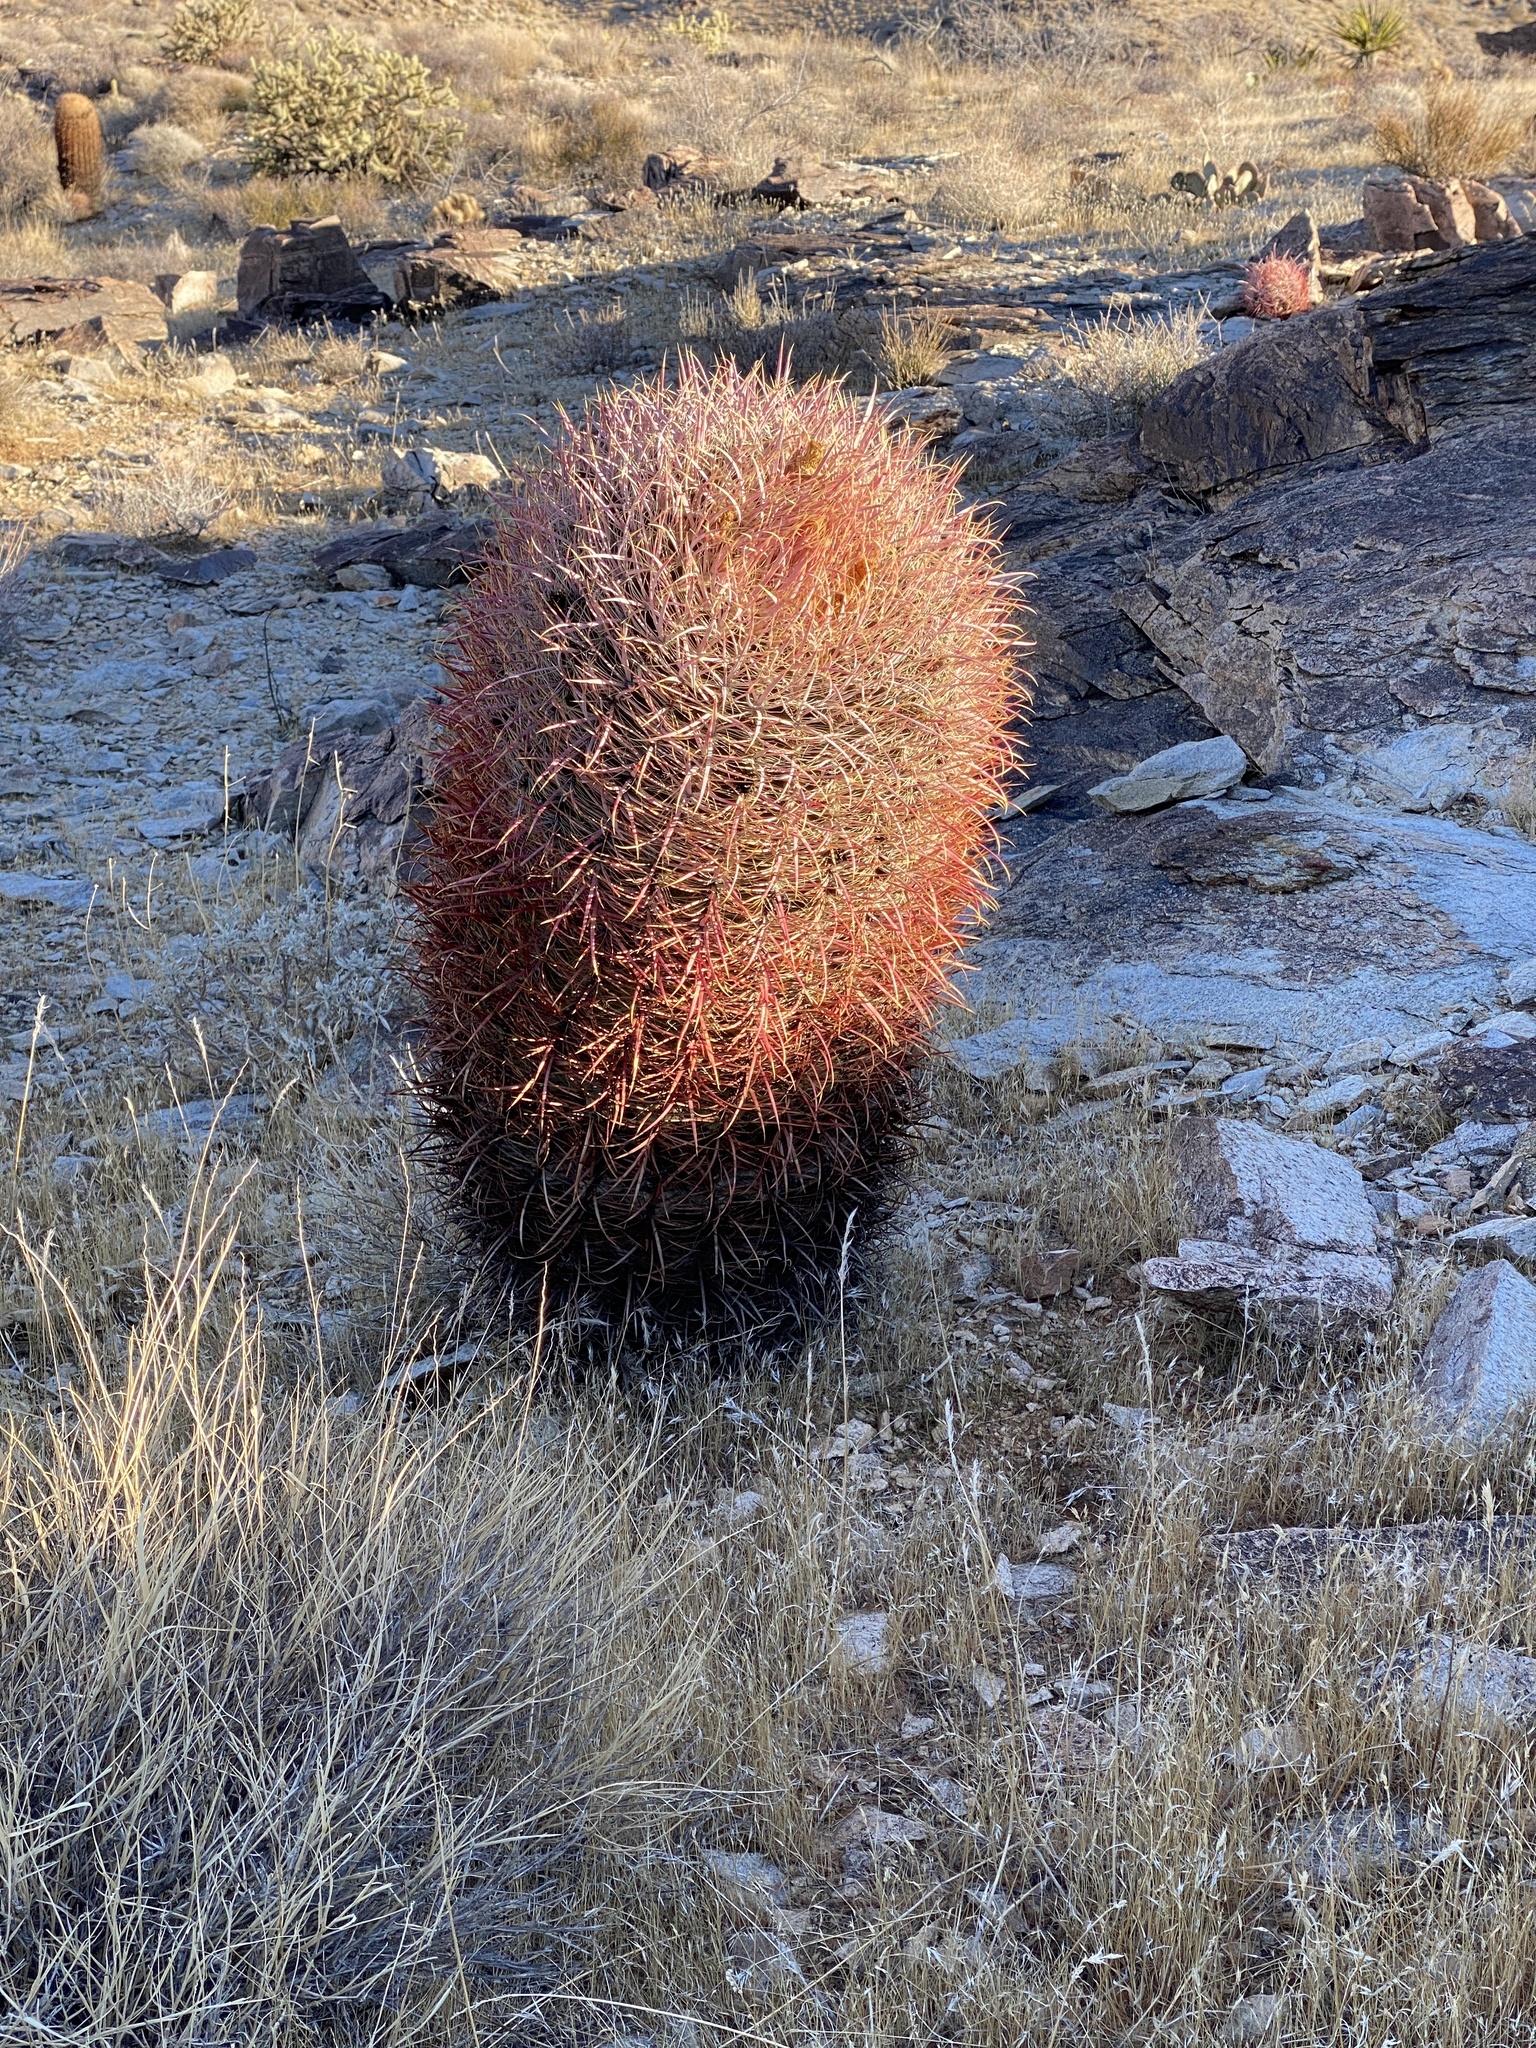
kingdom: Plantae
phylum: Tracheophyta
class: Magnoliopsida
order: Caryophyllales
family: Cactaceae
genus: Ferocactus
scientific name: Ferocactus cylindraceus
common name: California barrel cactus
